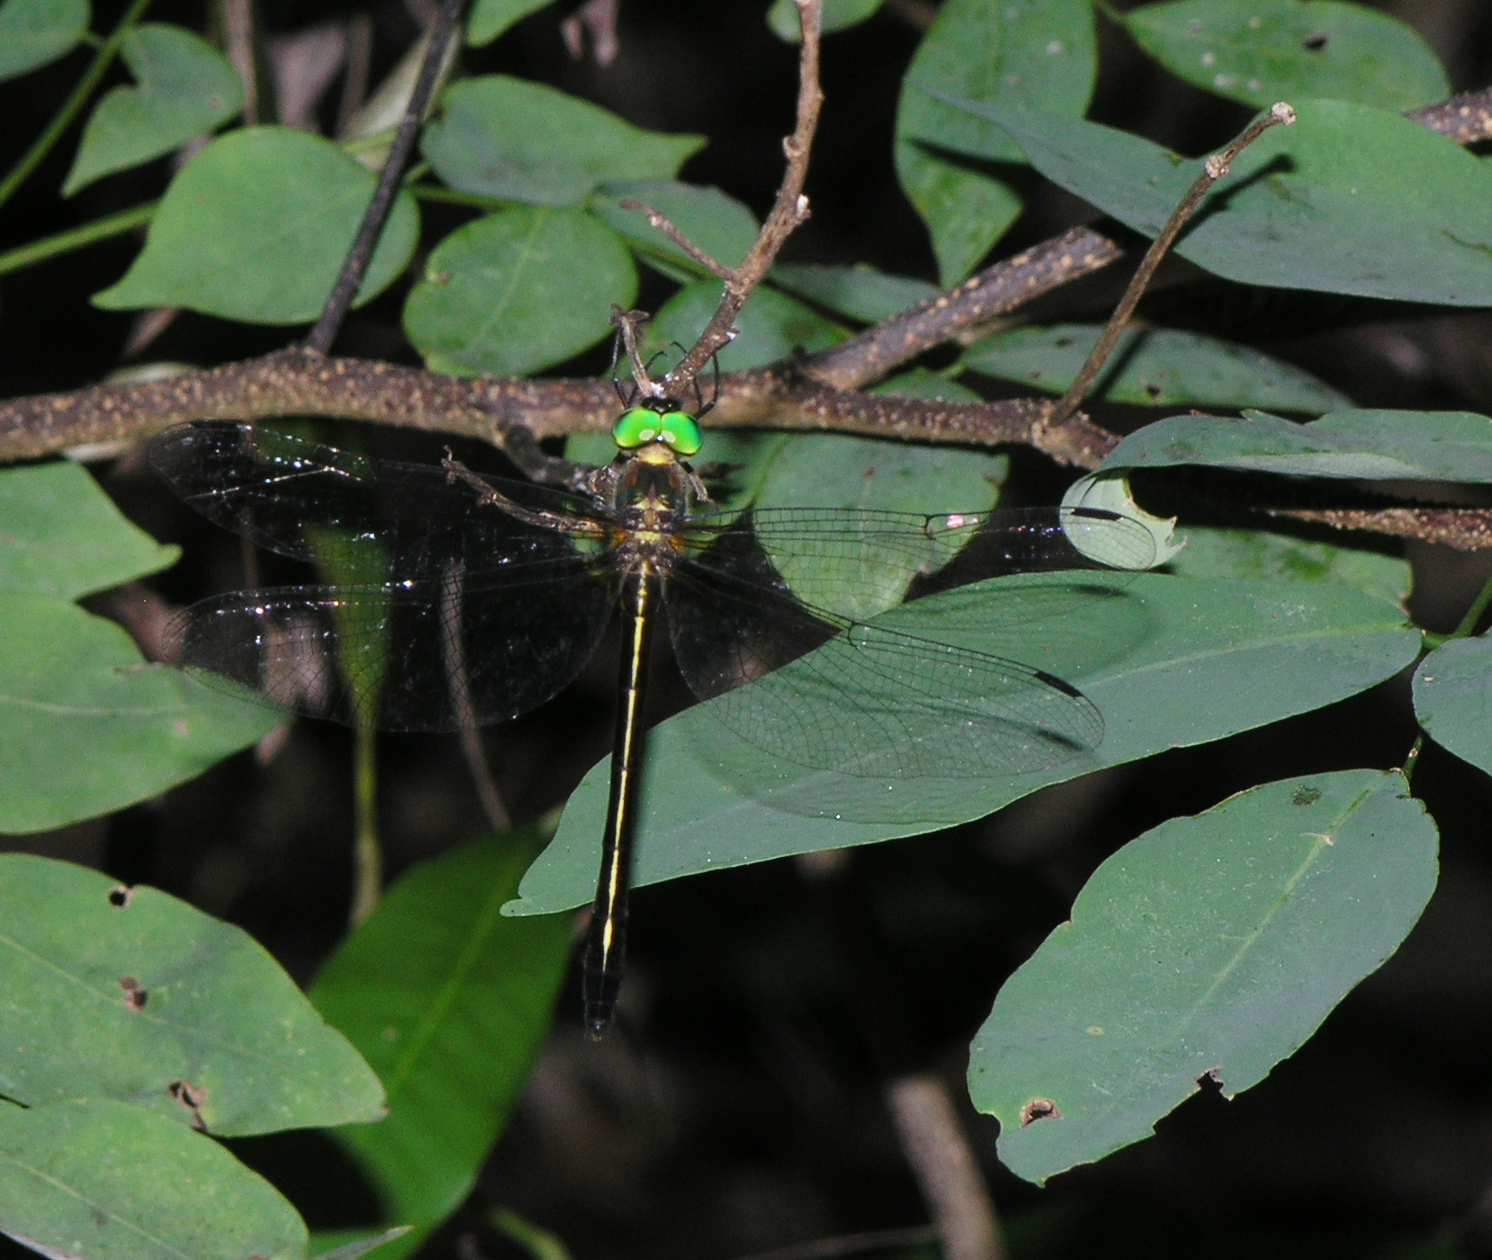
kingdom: Animalia
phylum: Arthropoda
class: Insecta
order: Odonata
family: Corduliidae
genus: Macromidia
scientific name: Macromidia rapida
